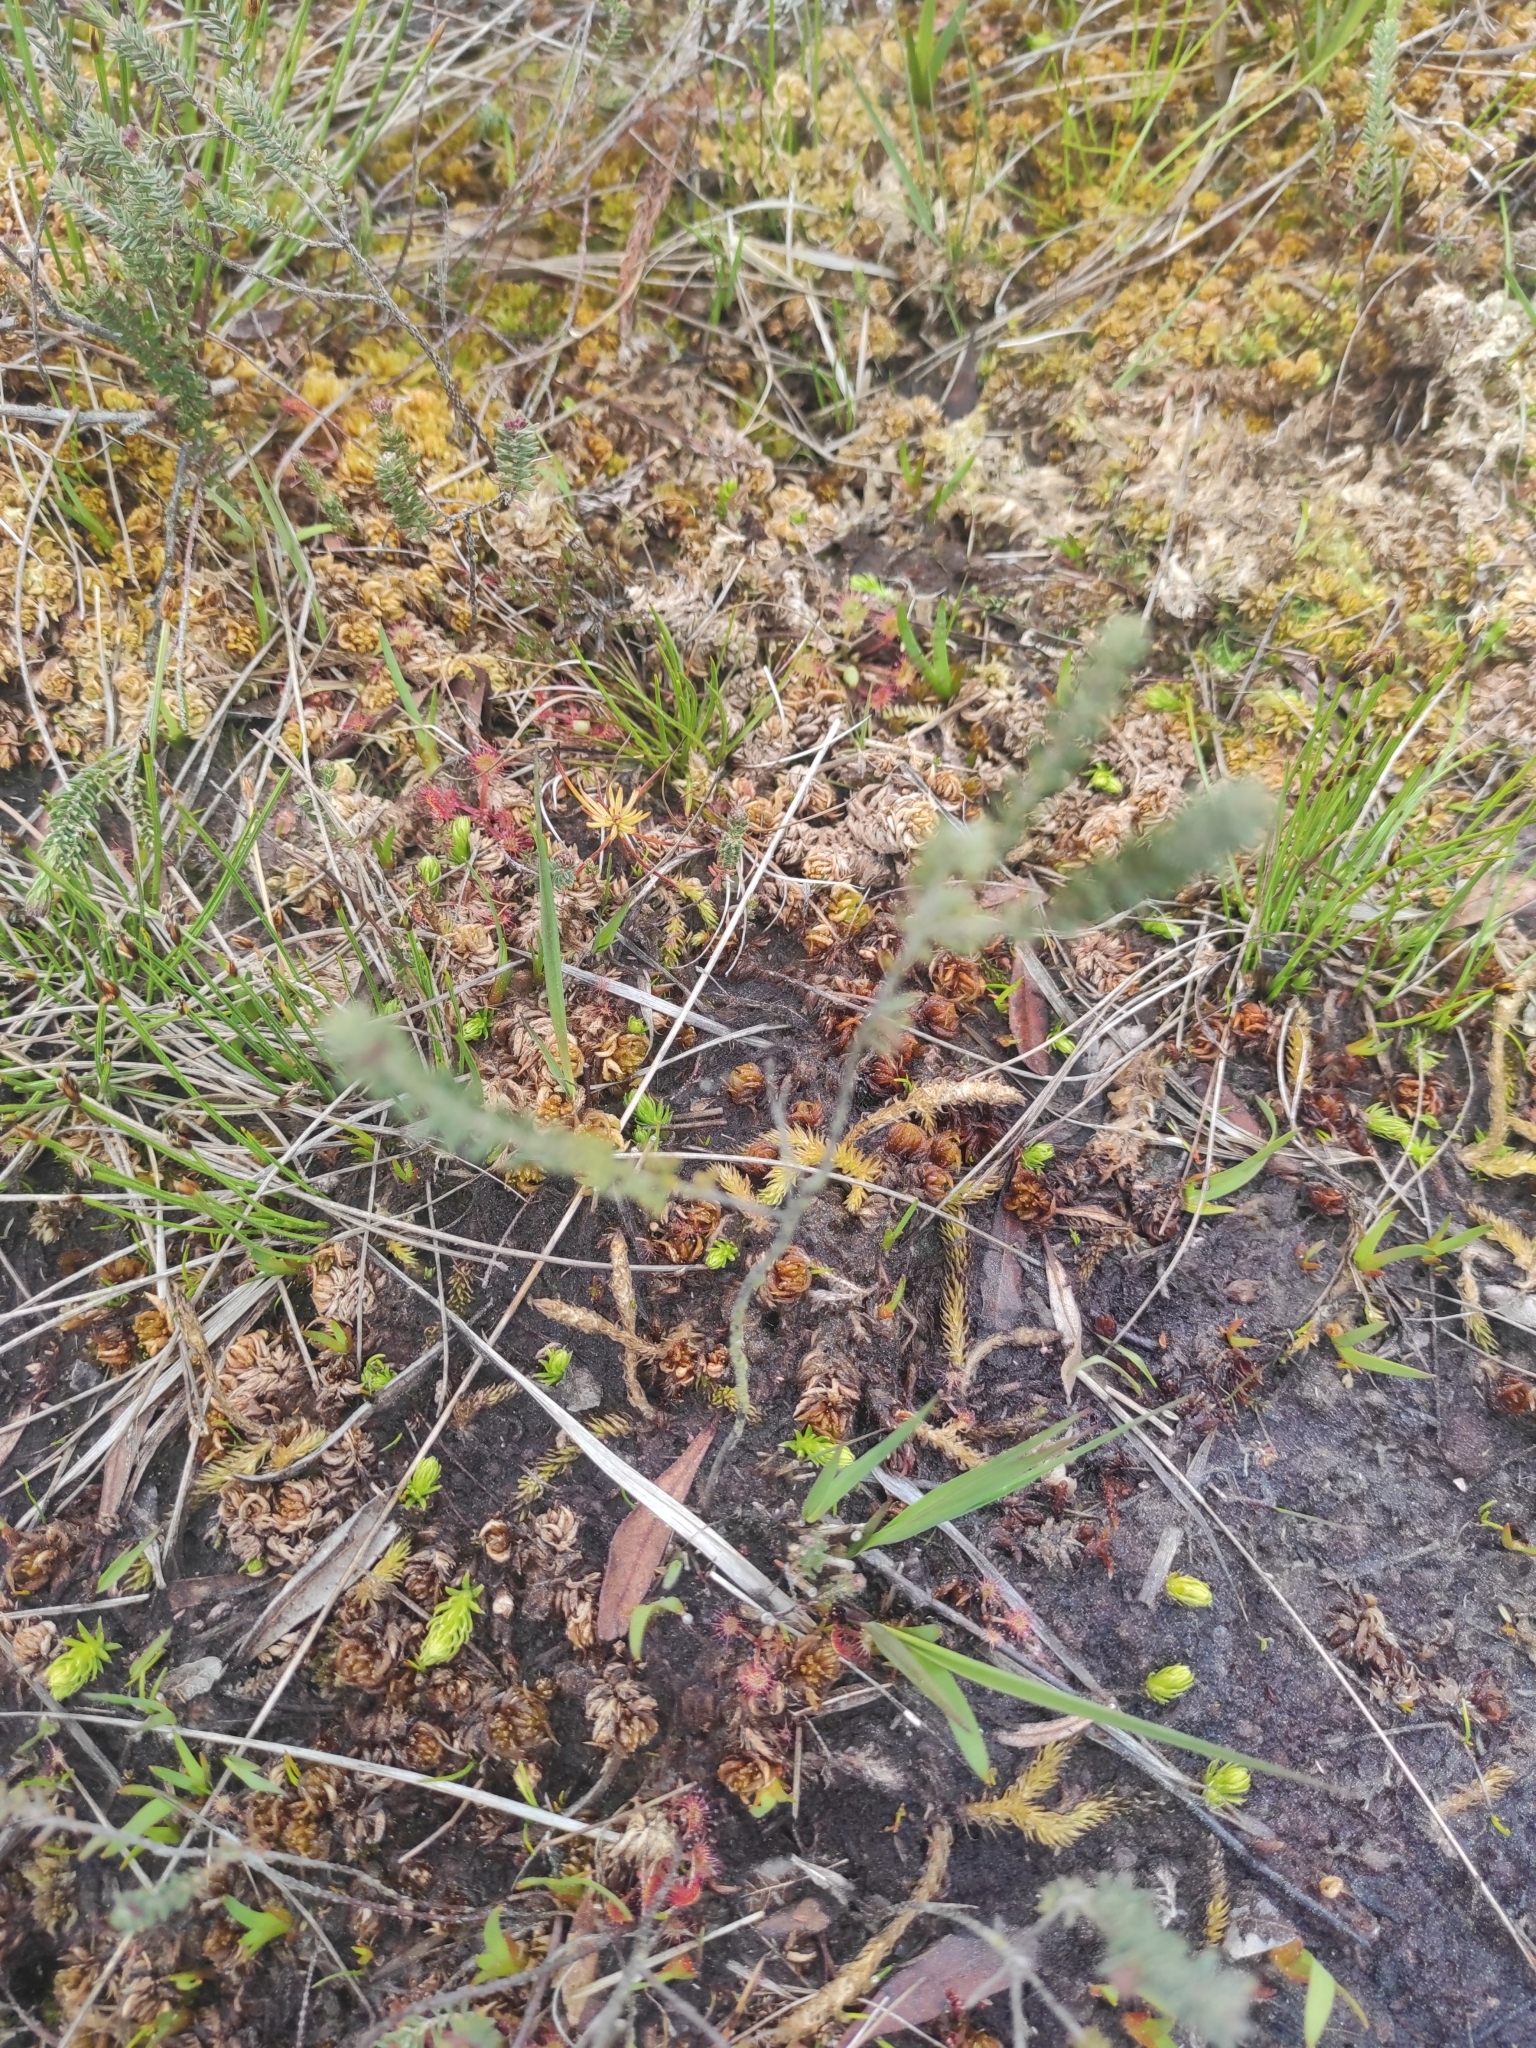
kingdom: Plantae
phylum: Tracheophyta
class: Lycopodiopsida
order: Lycopodiales
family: Lycopodiaceae
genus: Lycopodiella
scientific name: Lycopodiella inundata
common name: Marsh clubmoss
